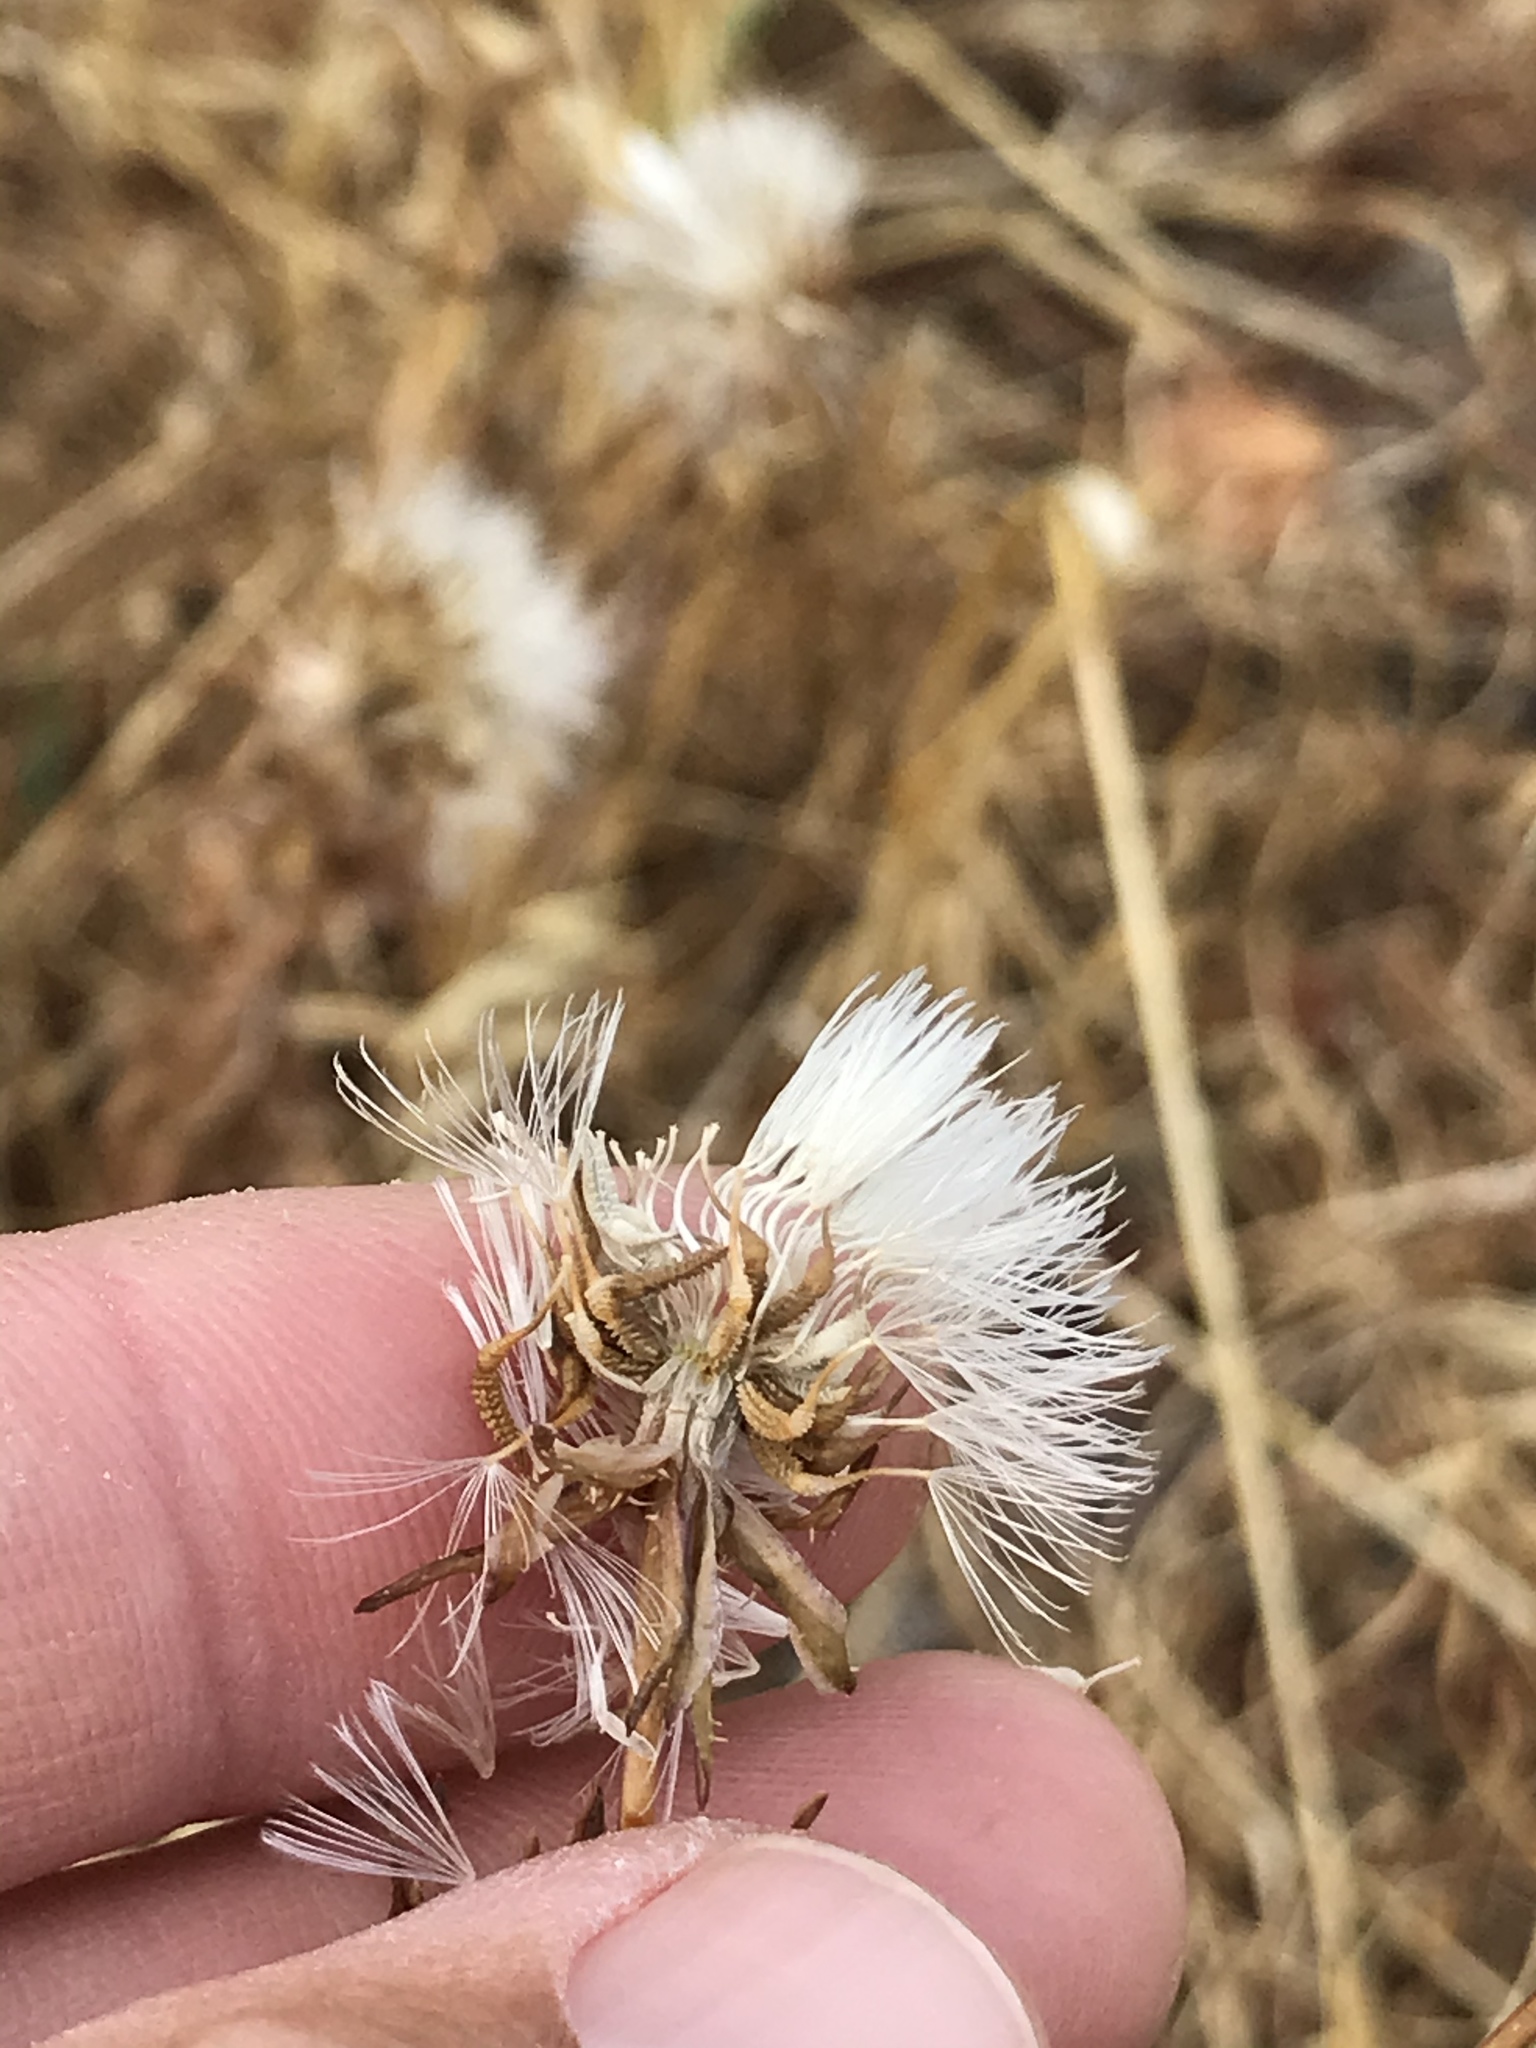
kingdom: Plantae
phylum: Tracheophyta
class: Magnoliopsida
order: Asterales
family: Asteraceae
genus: Urospermum
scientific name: Urospermum picroides
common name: False hawkbit
